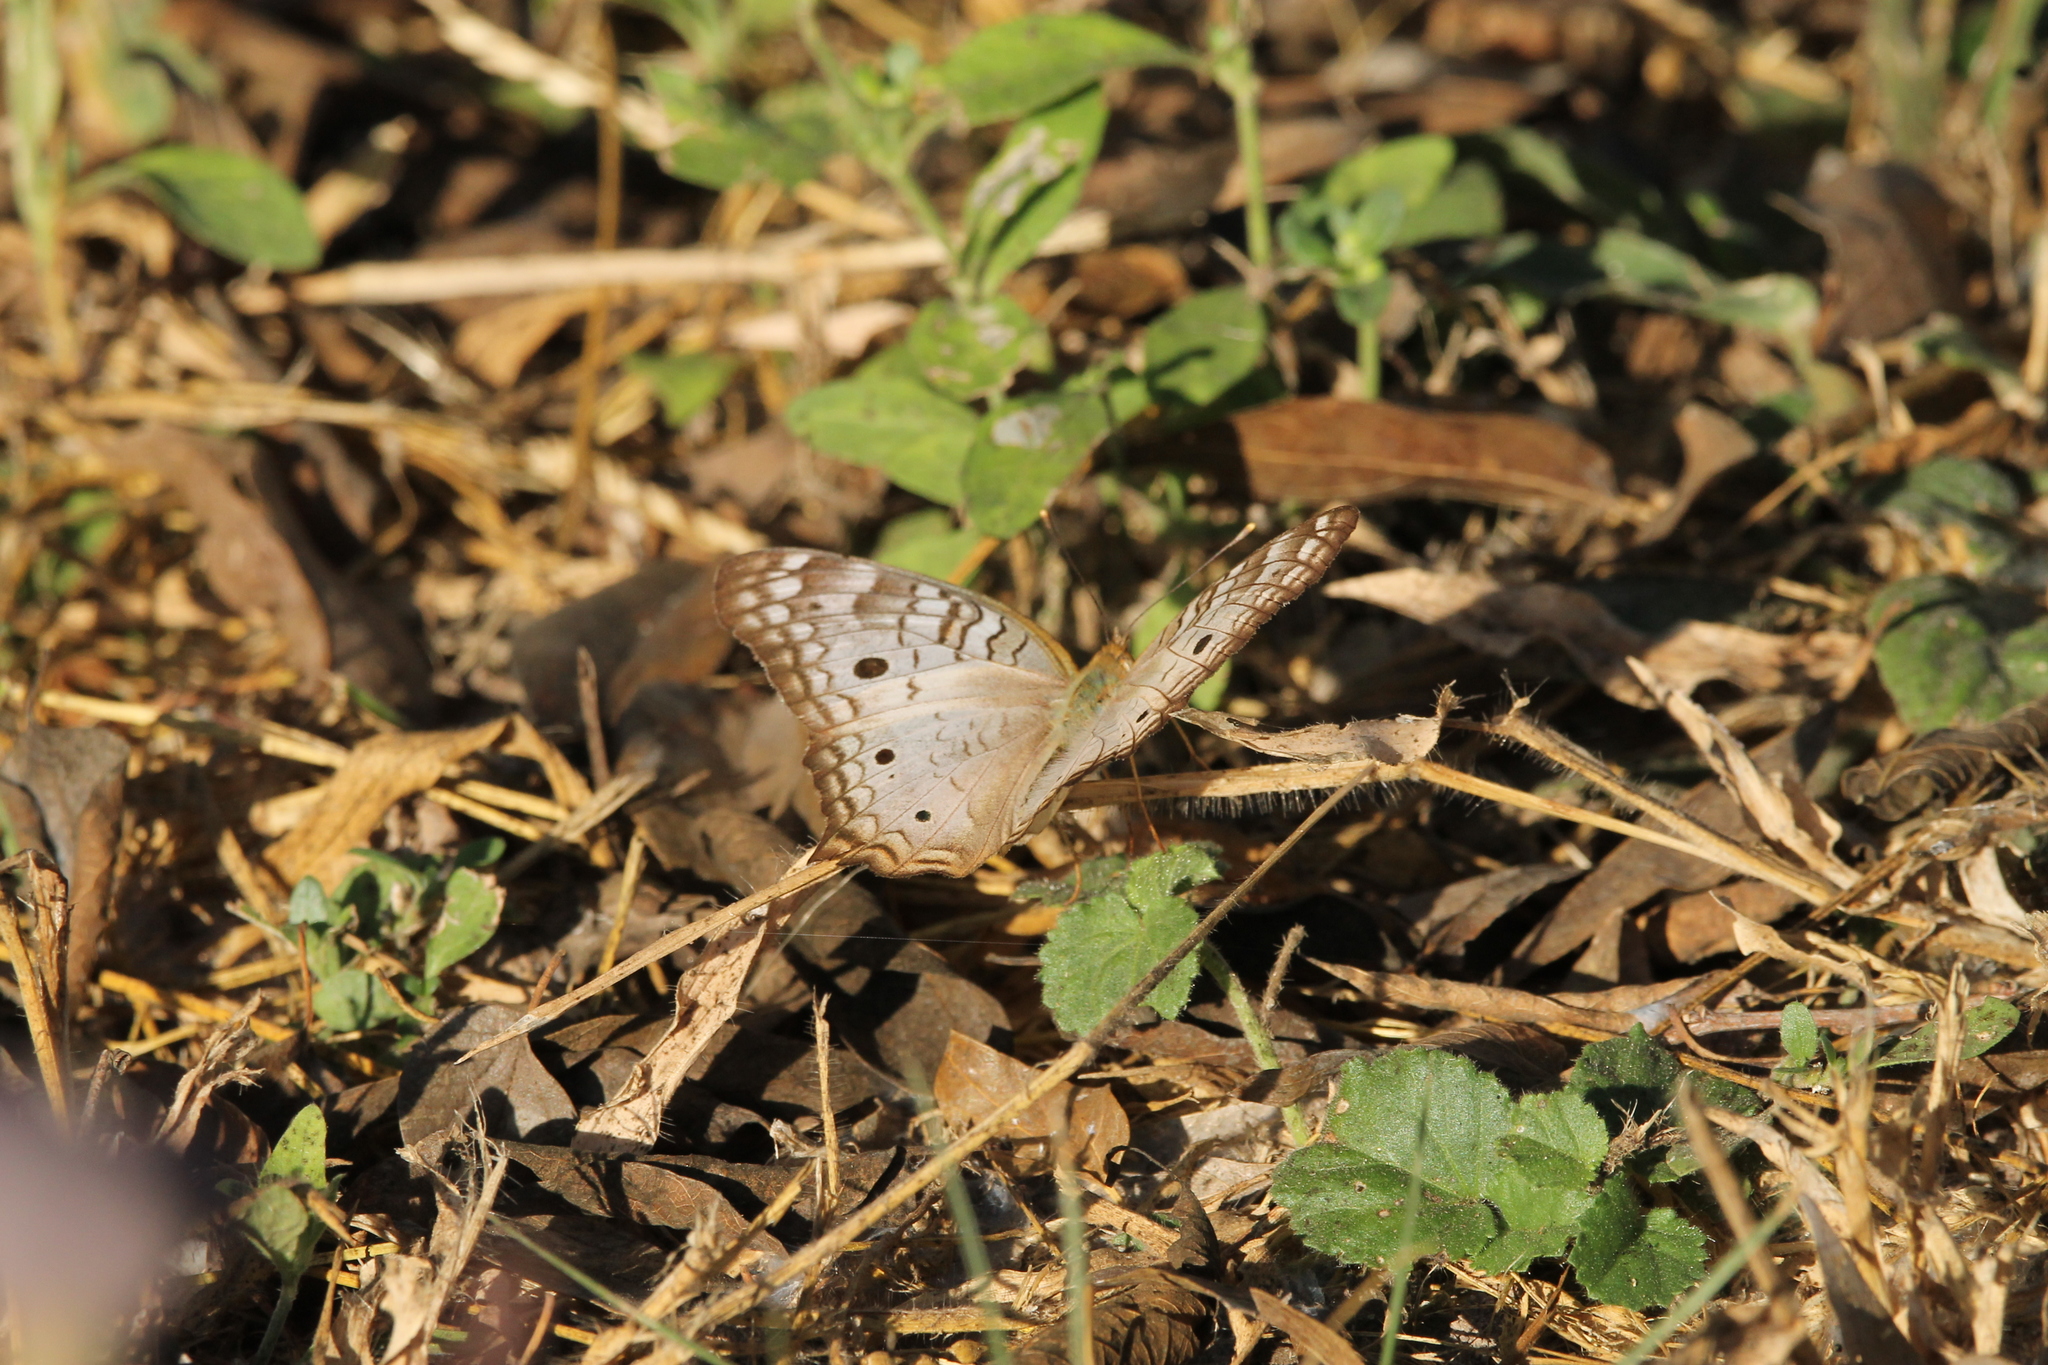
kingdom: Animalia
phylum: Arthropoda
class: Insecta
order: Lepidoptera
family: Nymphalidae
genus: Anartia
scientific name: Anartia jatrophae
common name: White peacock
